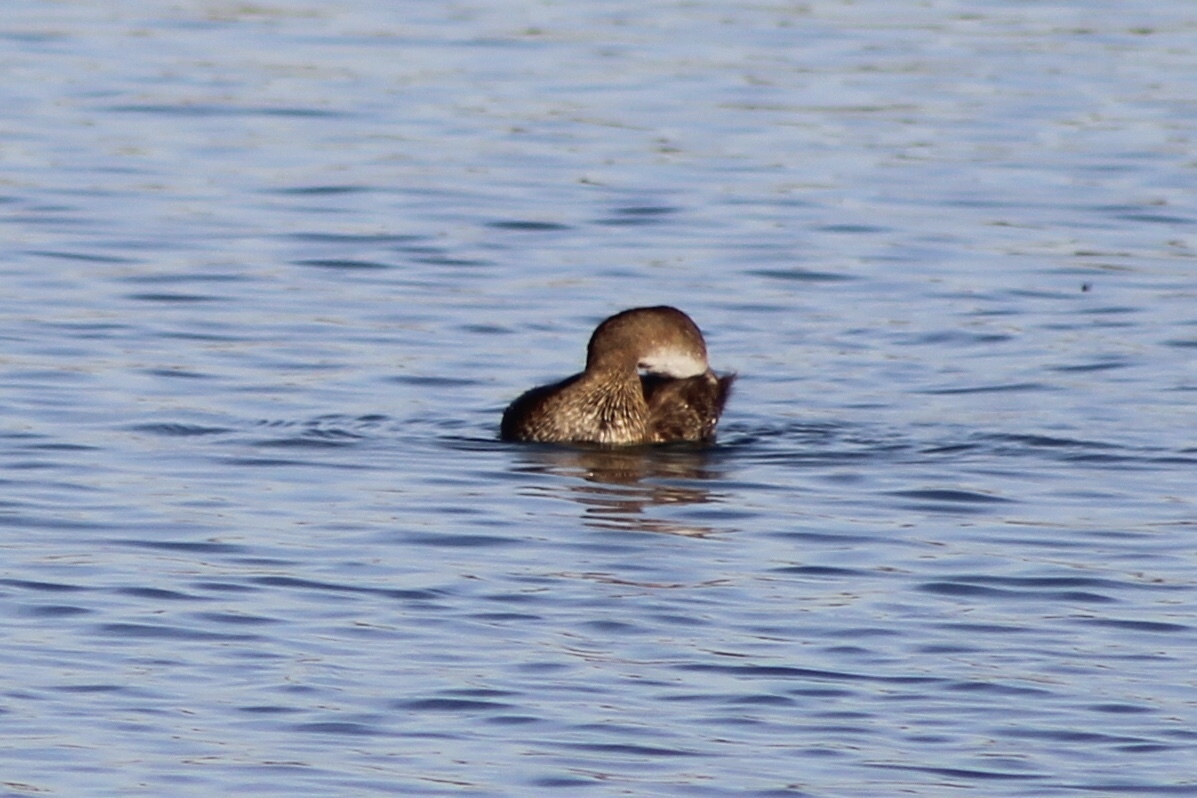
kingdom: Animalia
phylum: Chordata
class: Aves
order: Podicipediformes
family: Podicipedidae
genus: Podilymbus
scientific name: Podilymbus podiceps
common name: Pied-billed grebe
